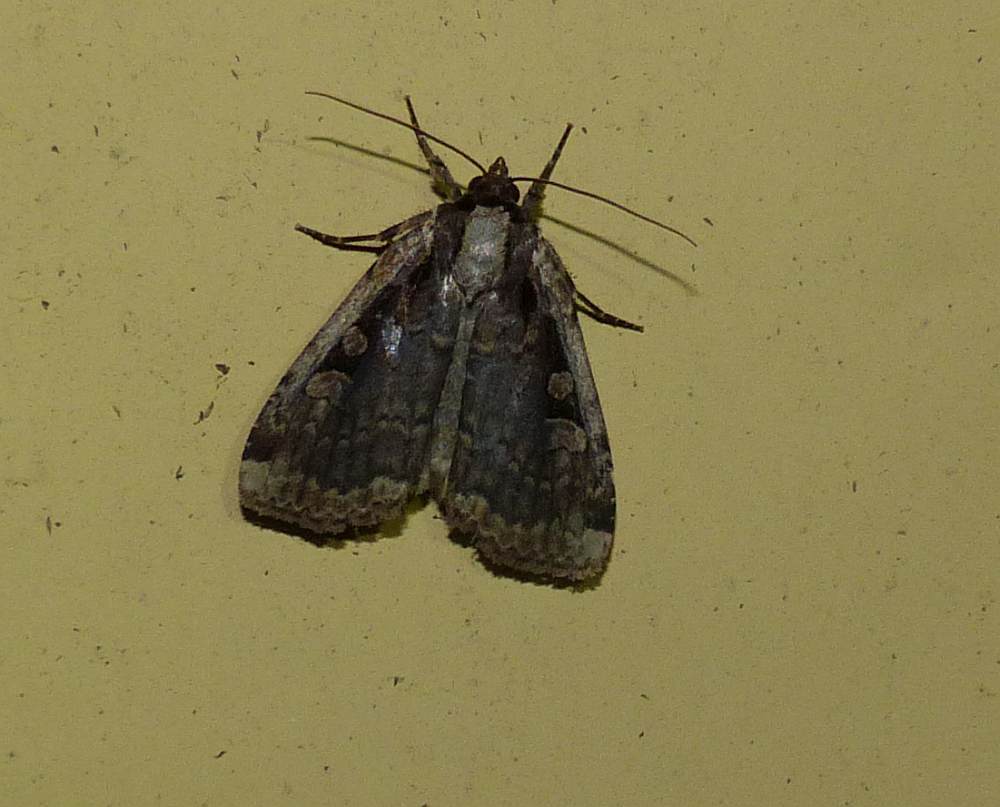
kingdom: Animalia
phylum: Arthropoda
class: Insecta
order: Lepidoptera
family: Noctuidae
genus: Eueretagrotis
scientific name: Eueretagrotis sigmoides
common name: Sigmoid dart
